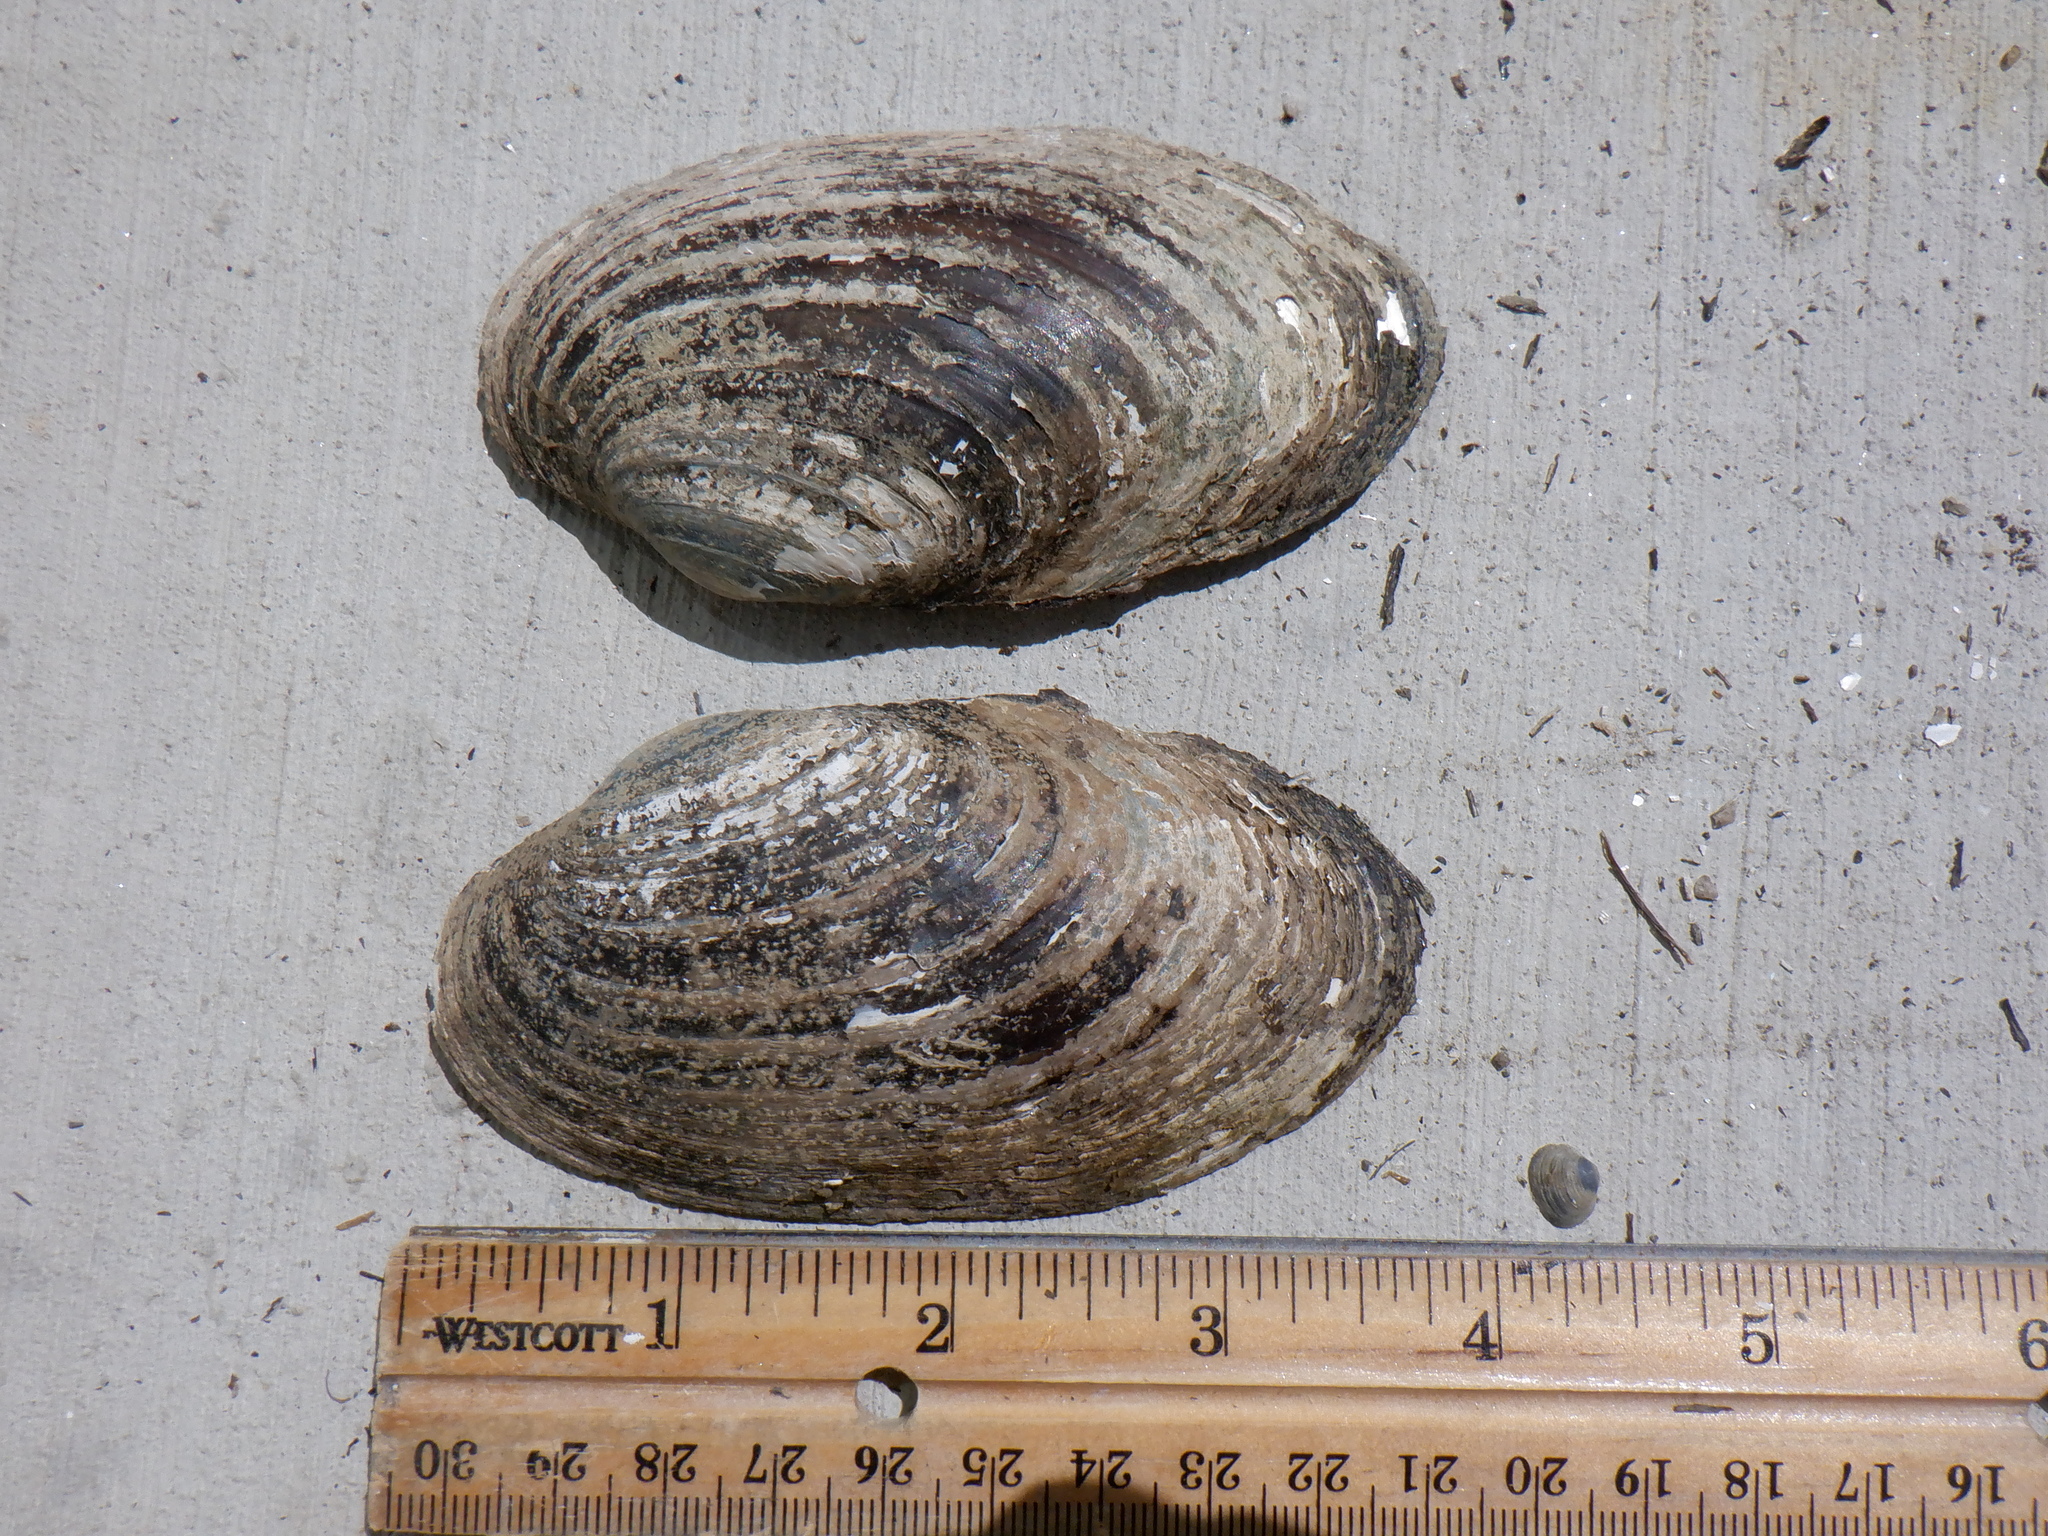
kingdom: Animalia
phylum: Mollusca
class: Bivalvia
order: Unionida
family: Unionidae
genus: Lampsilis
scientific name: Lampsilis siliquoidea
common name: Fatmucket
